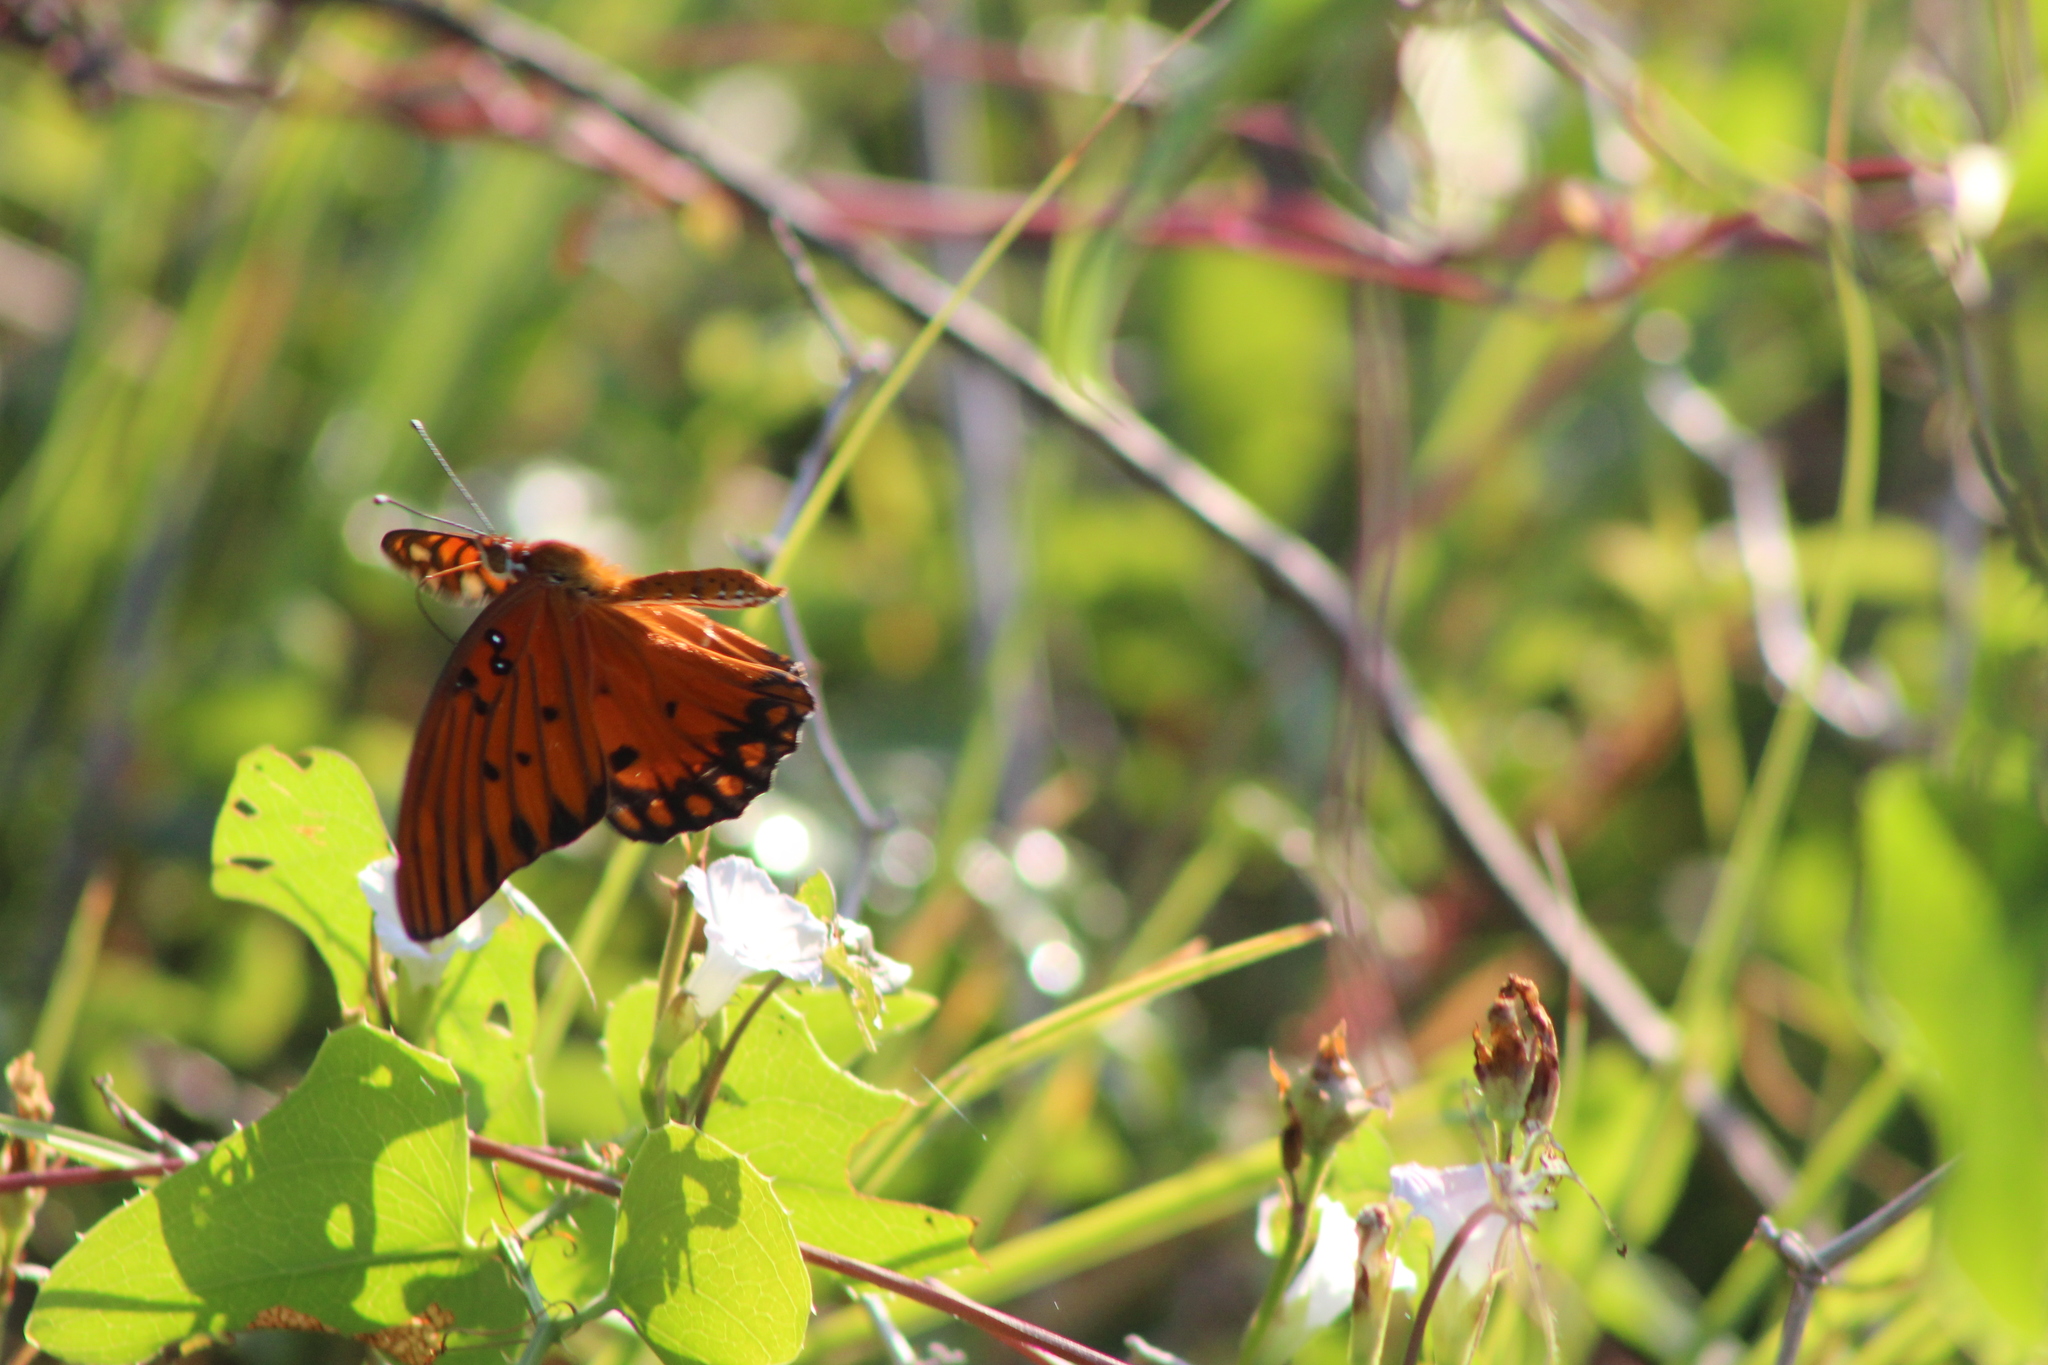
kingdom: Animalia
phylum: Arthropoda
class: Insecta
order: Lepidoptera
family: Nymphalidae
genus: Dione
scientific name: Dione vanillae
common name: Gulf fritillary
